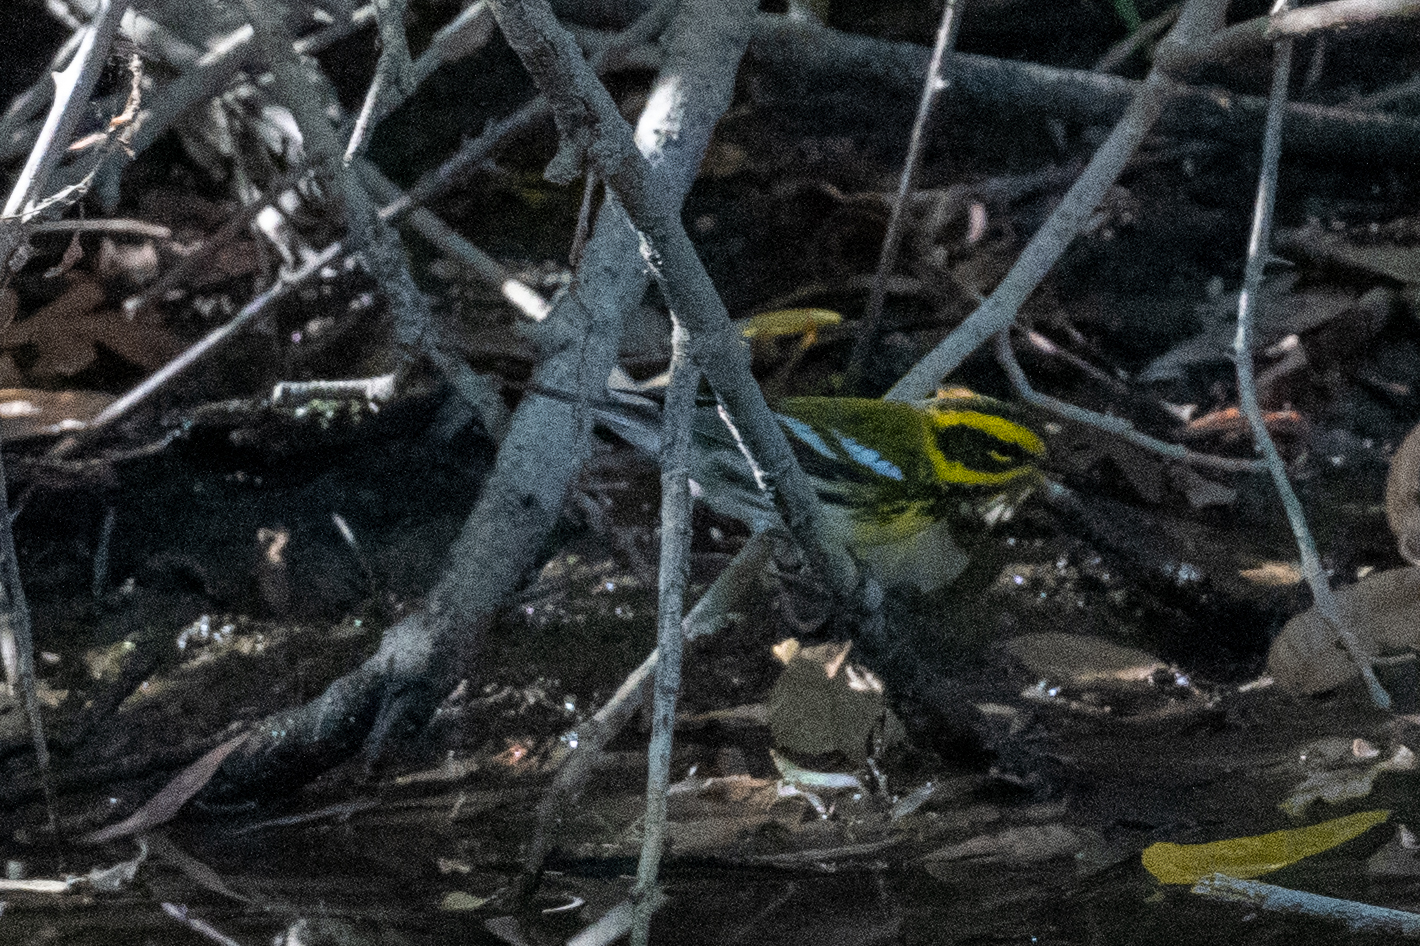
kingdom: Animalia
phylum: Chordata
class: Aves
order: Passeriformes
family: Parulidae
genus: Setophaga
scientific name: Setophaga townsendi
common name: Townsend's warbler
